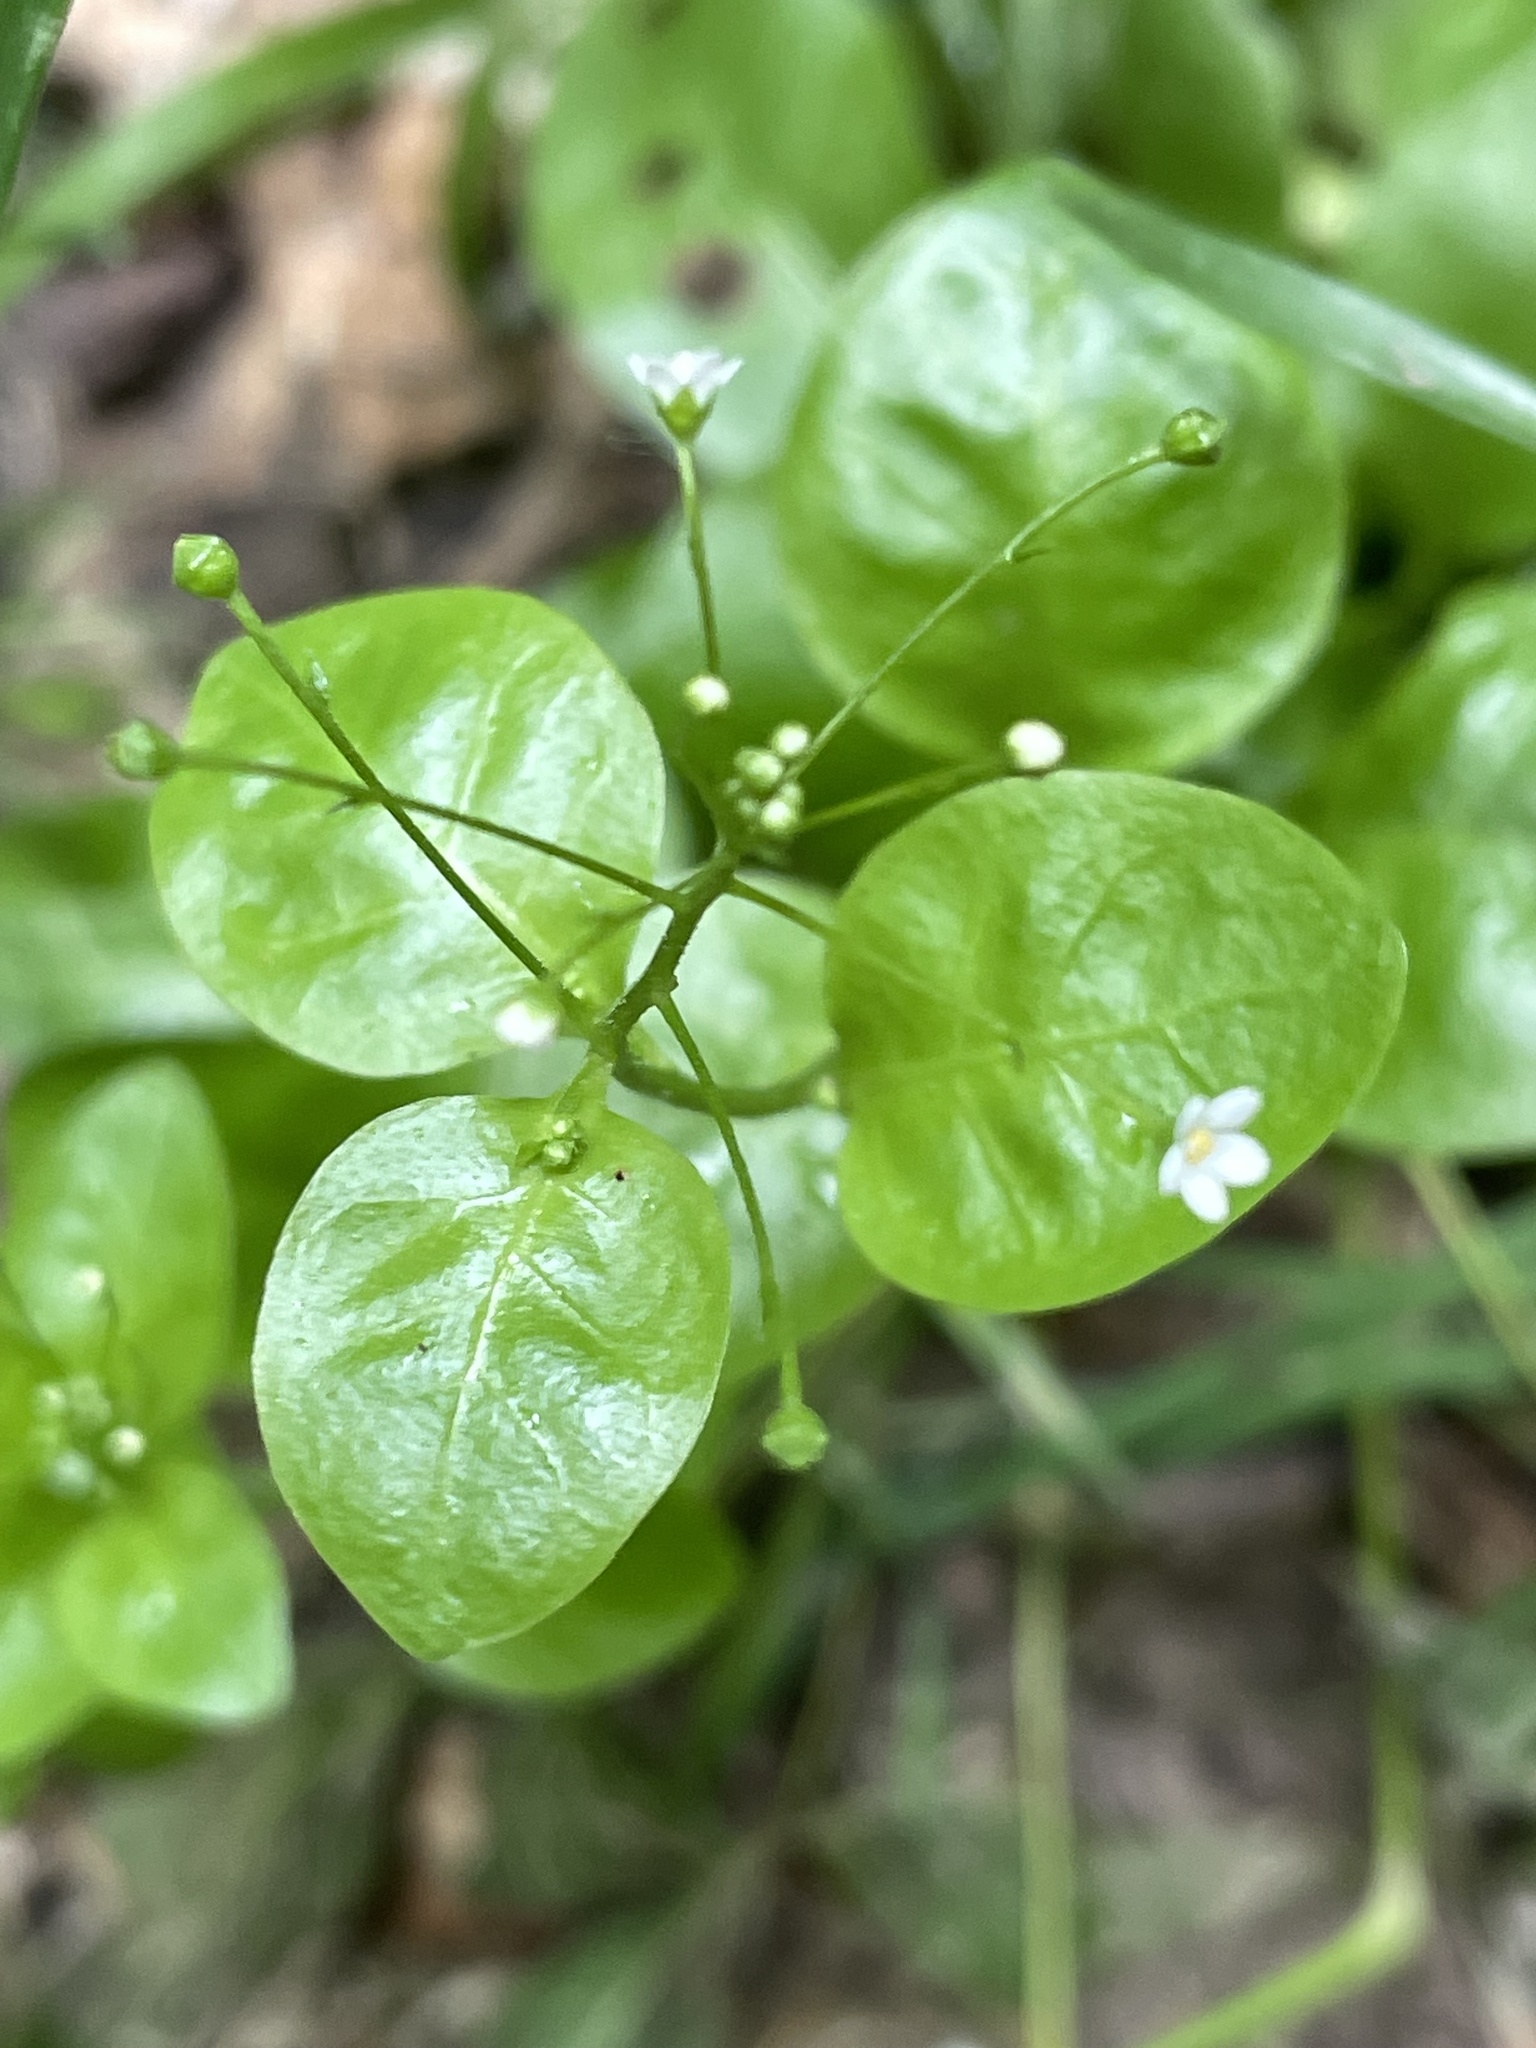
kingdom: Plantae
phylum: Tracheophyta
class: Magnoliopsida
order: Ericales
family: Primulaceae
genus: Samolus
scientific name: Samolus parviflorus
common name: False water pimpernel
